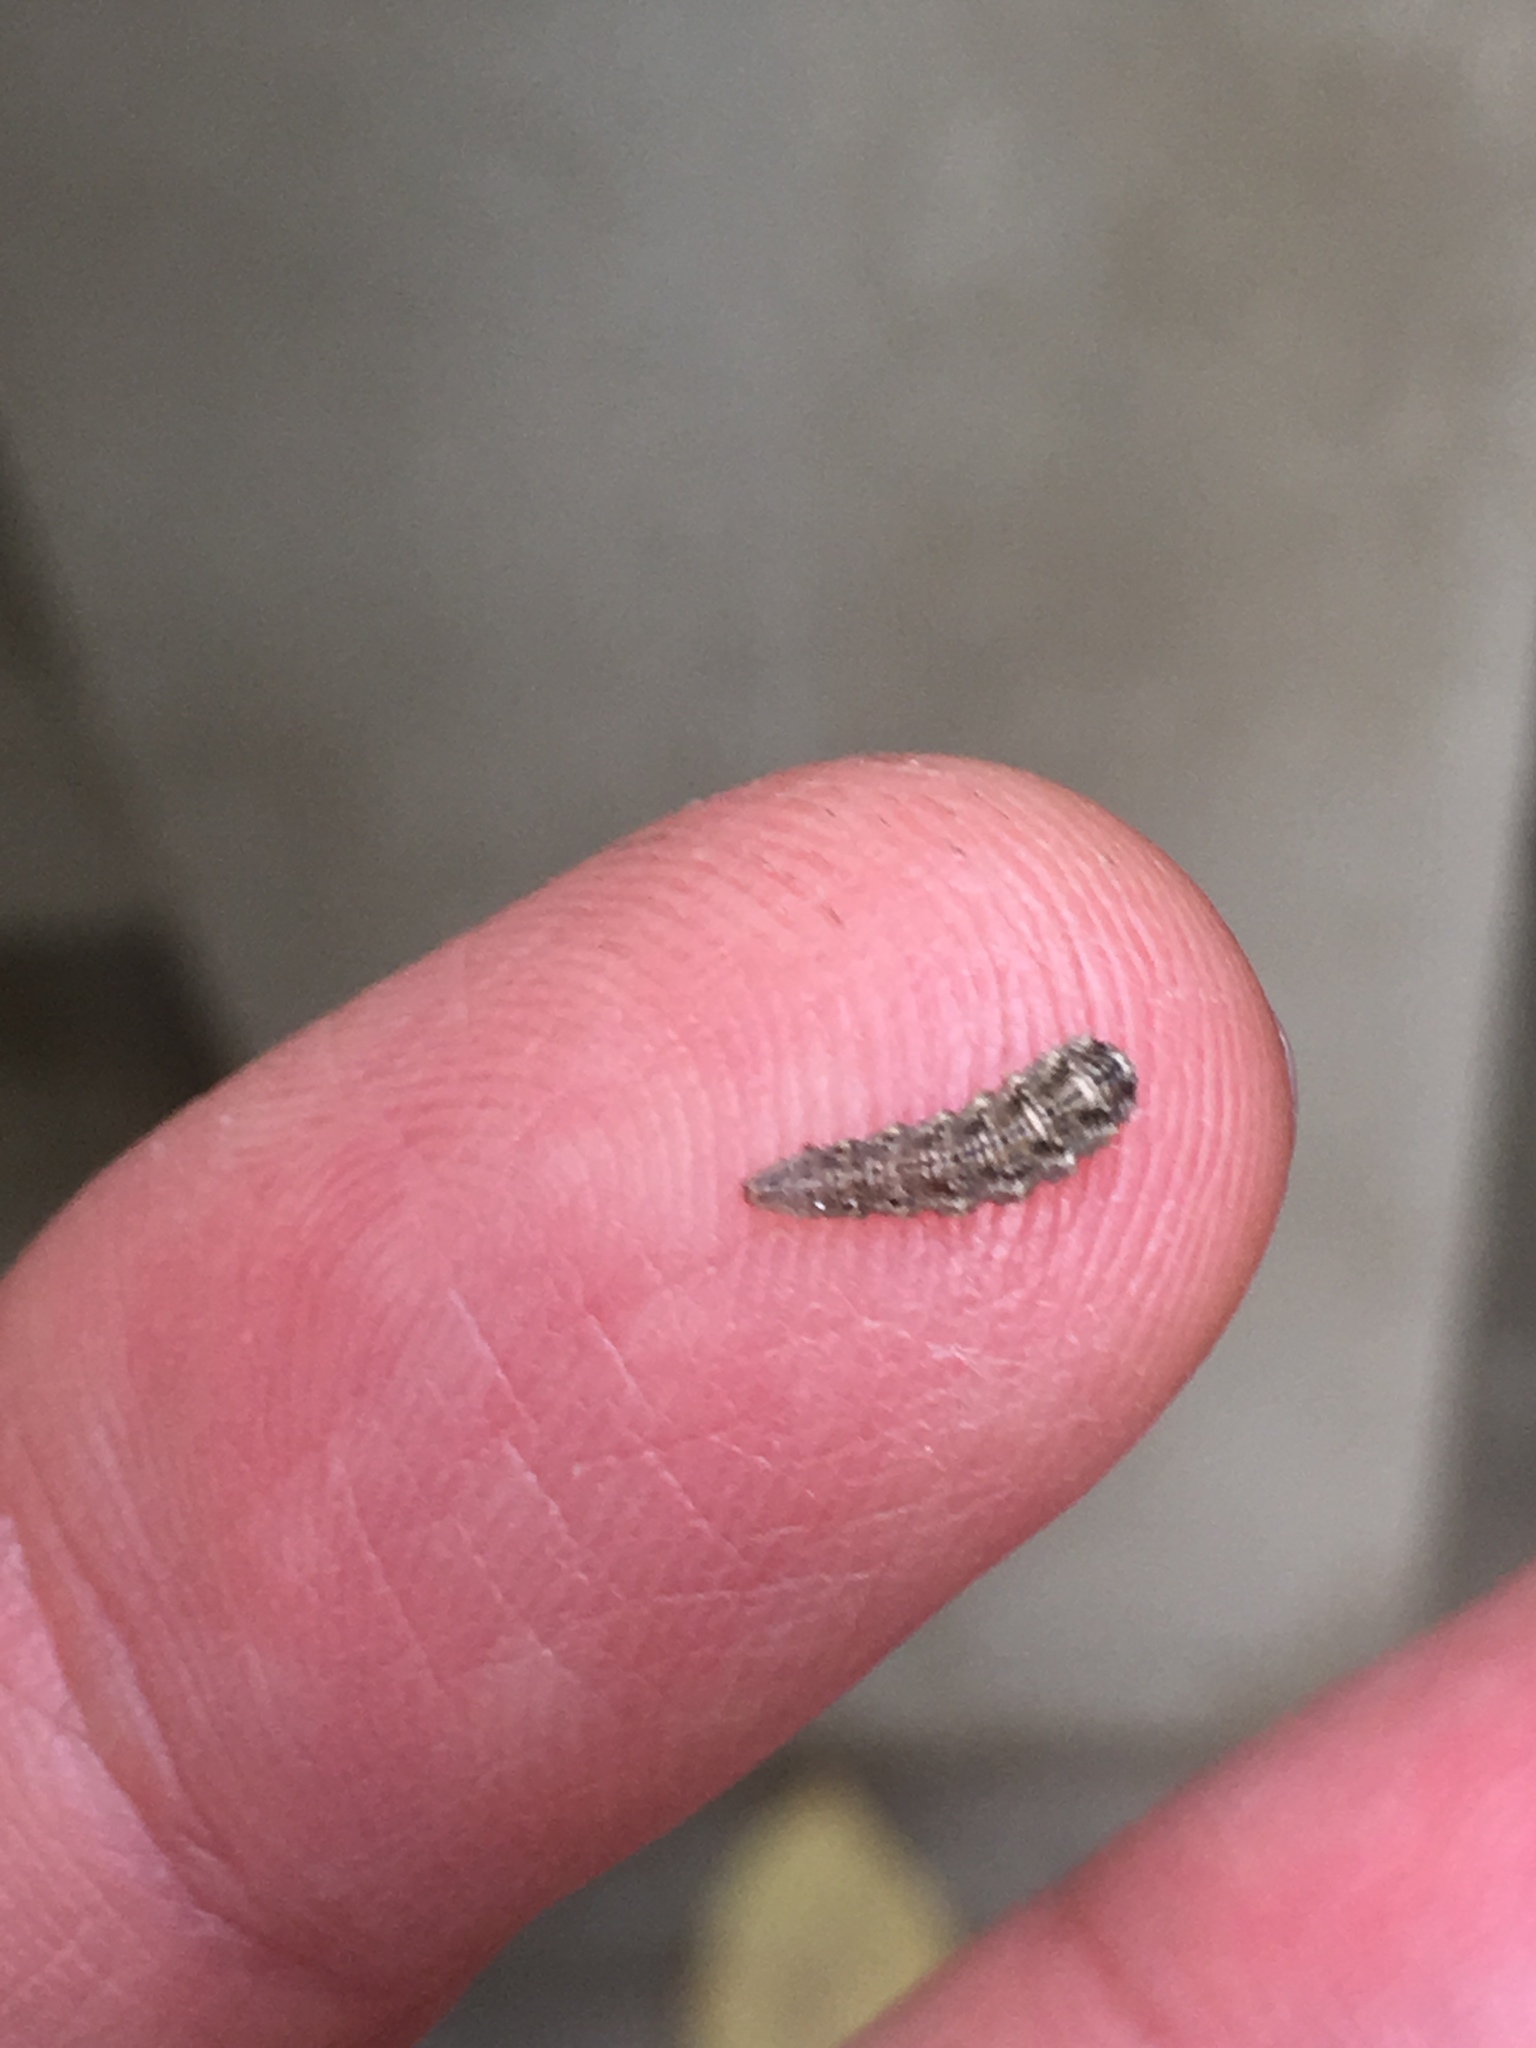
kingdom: Animalia
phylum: Arthropoda
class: Insecta
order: Diptera
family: Syrphidae
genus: Eupeodes
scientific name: Eupeodes americanus
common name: Long-tailed aphideater
